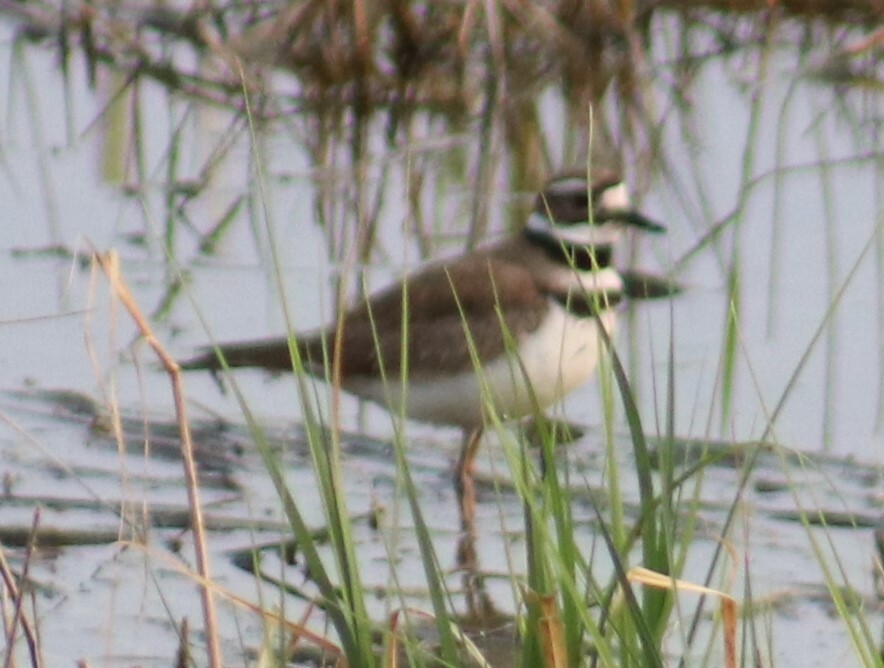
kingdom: Animalia
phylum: Chordata
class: Aves
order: Charadriiformes
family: Charadriidae
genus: Charadrius
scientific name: Charadrius vociferus
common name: Killdeer
